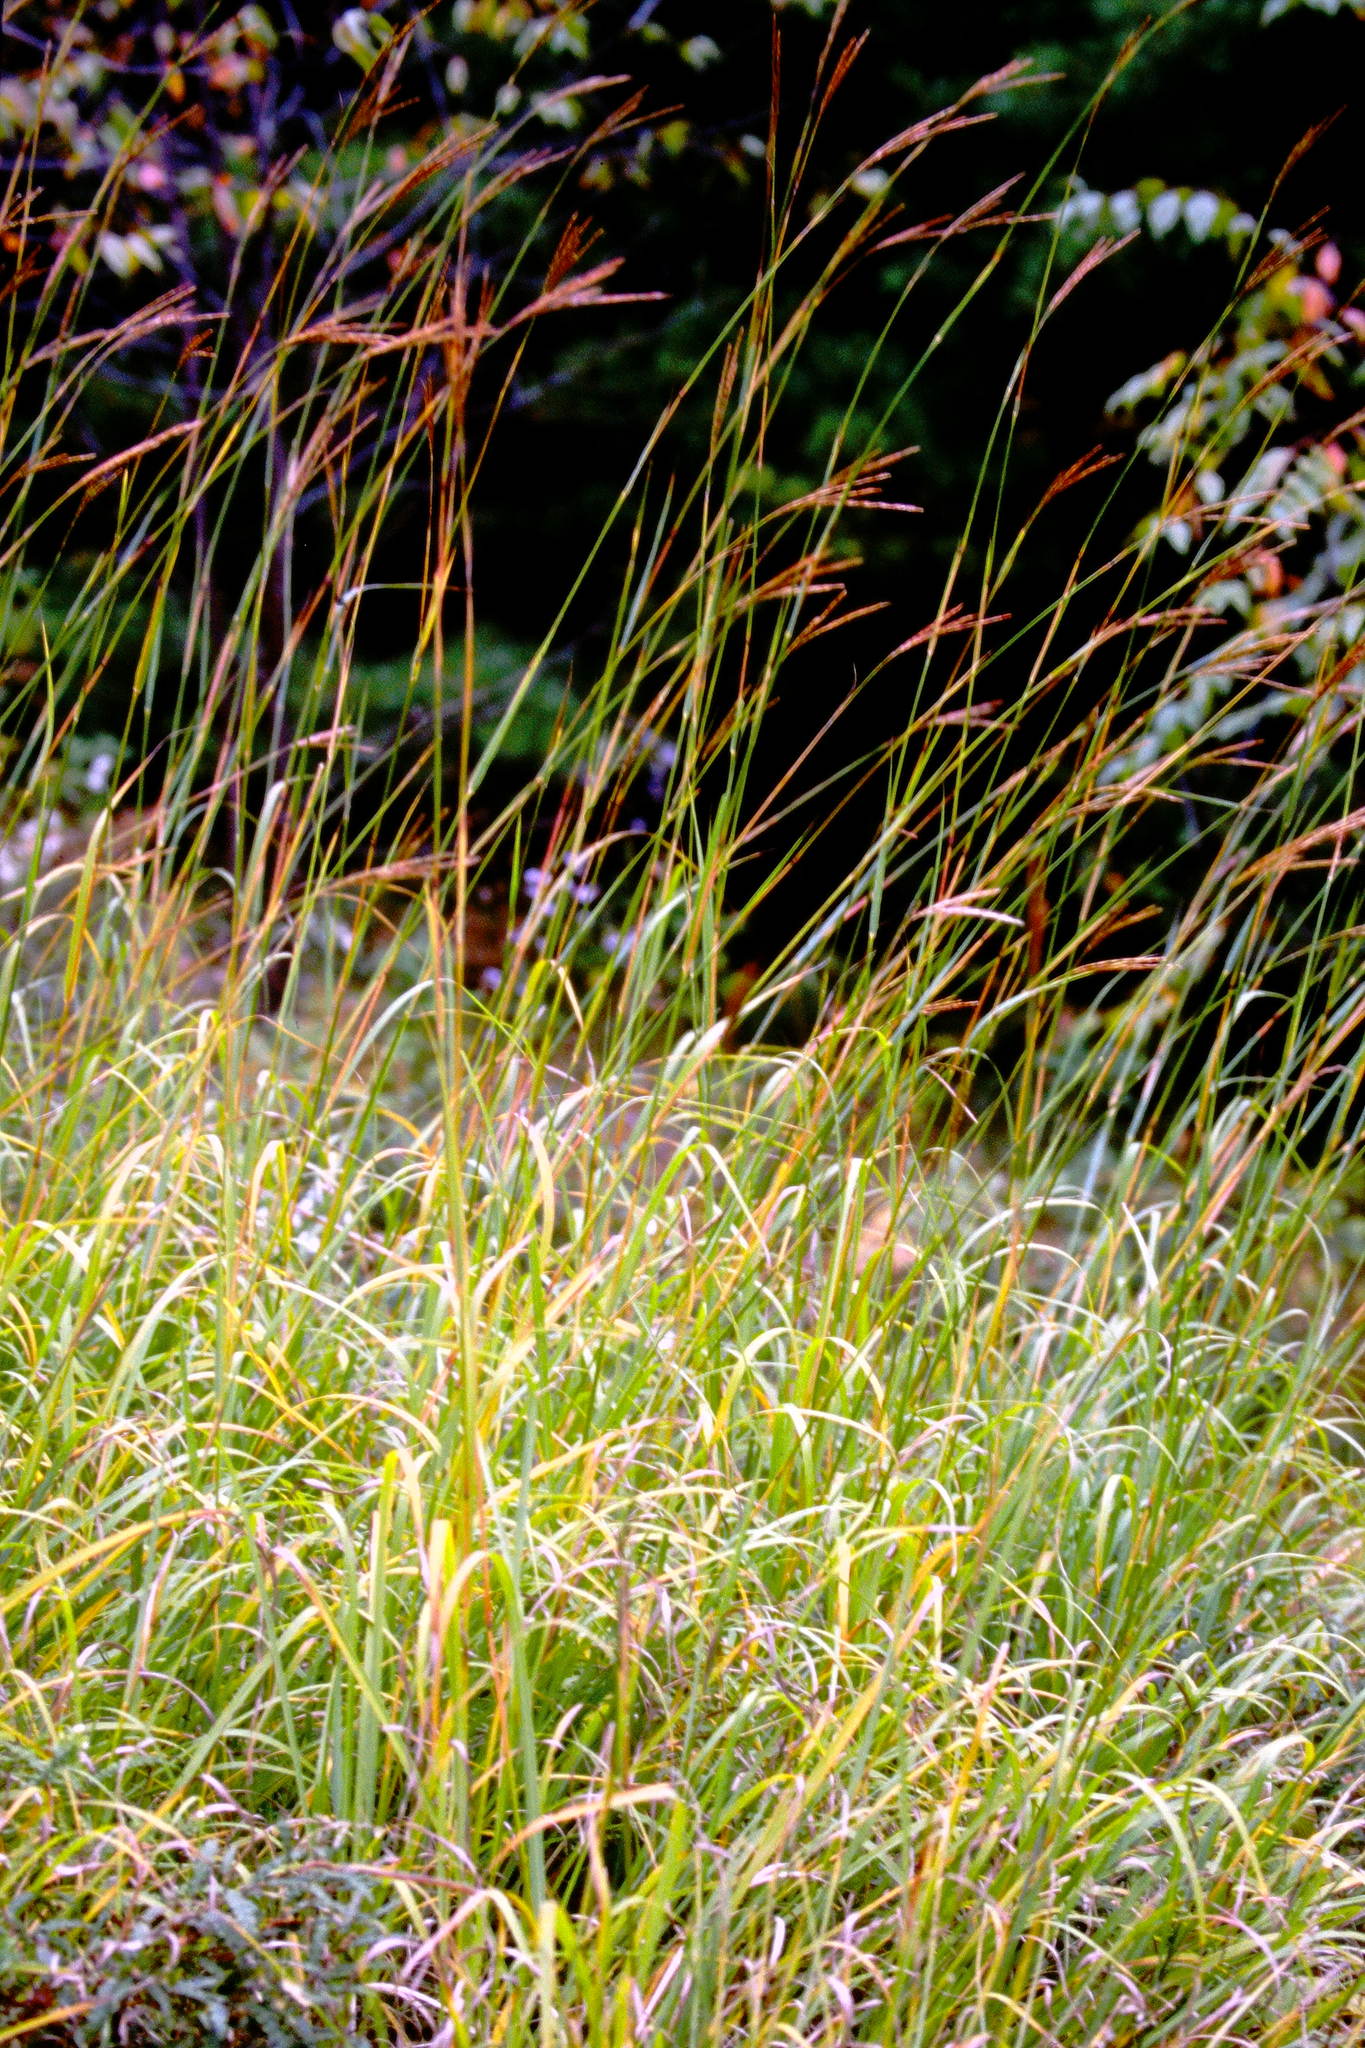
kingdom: Plantae
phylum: Tracheophyta
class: Liliopsida
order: Poales
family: Poaceae
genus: Andropogon
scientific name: Andropogon gerardi
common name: Big bluestem
